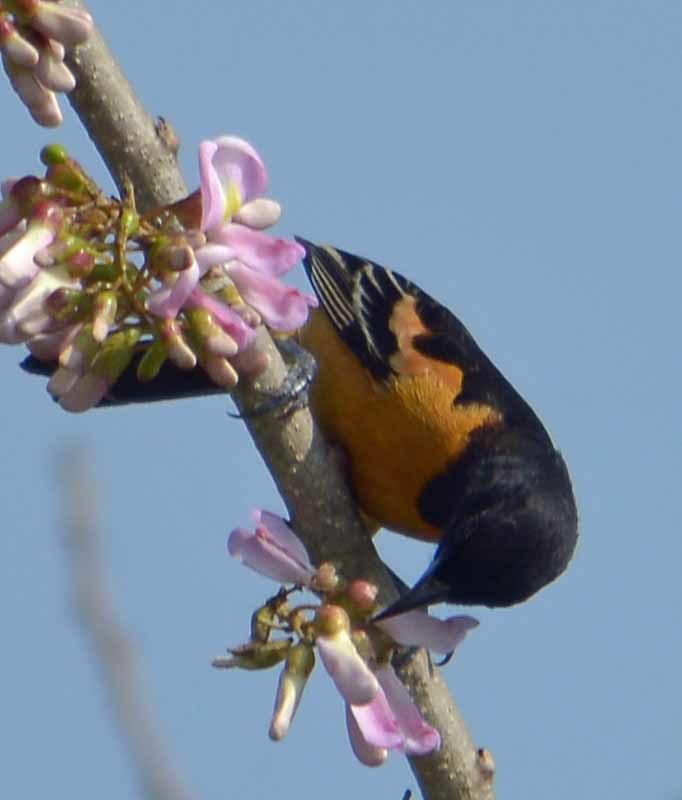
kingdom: Animalia
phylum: Chordata
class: Aves
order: Passeriformes
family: Icteridae
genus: Icterus
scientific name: Icterus spurius
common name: Orchard oriole
